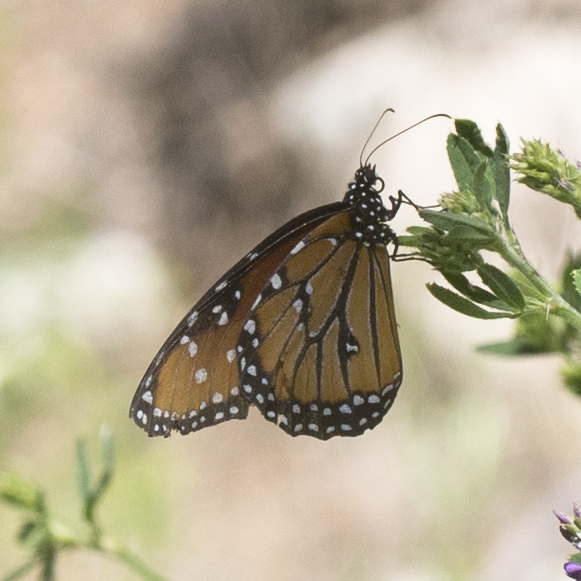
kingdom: Animalia
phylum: Arthropoda
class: Insecta
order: Lepidoptera
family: Nymphalidae
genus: Danaus
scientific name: Danaus gilippus
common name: Queen
